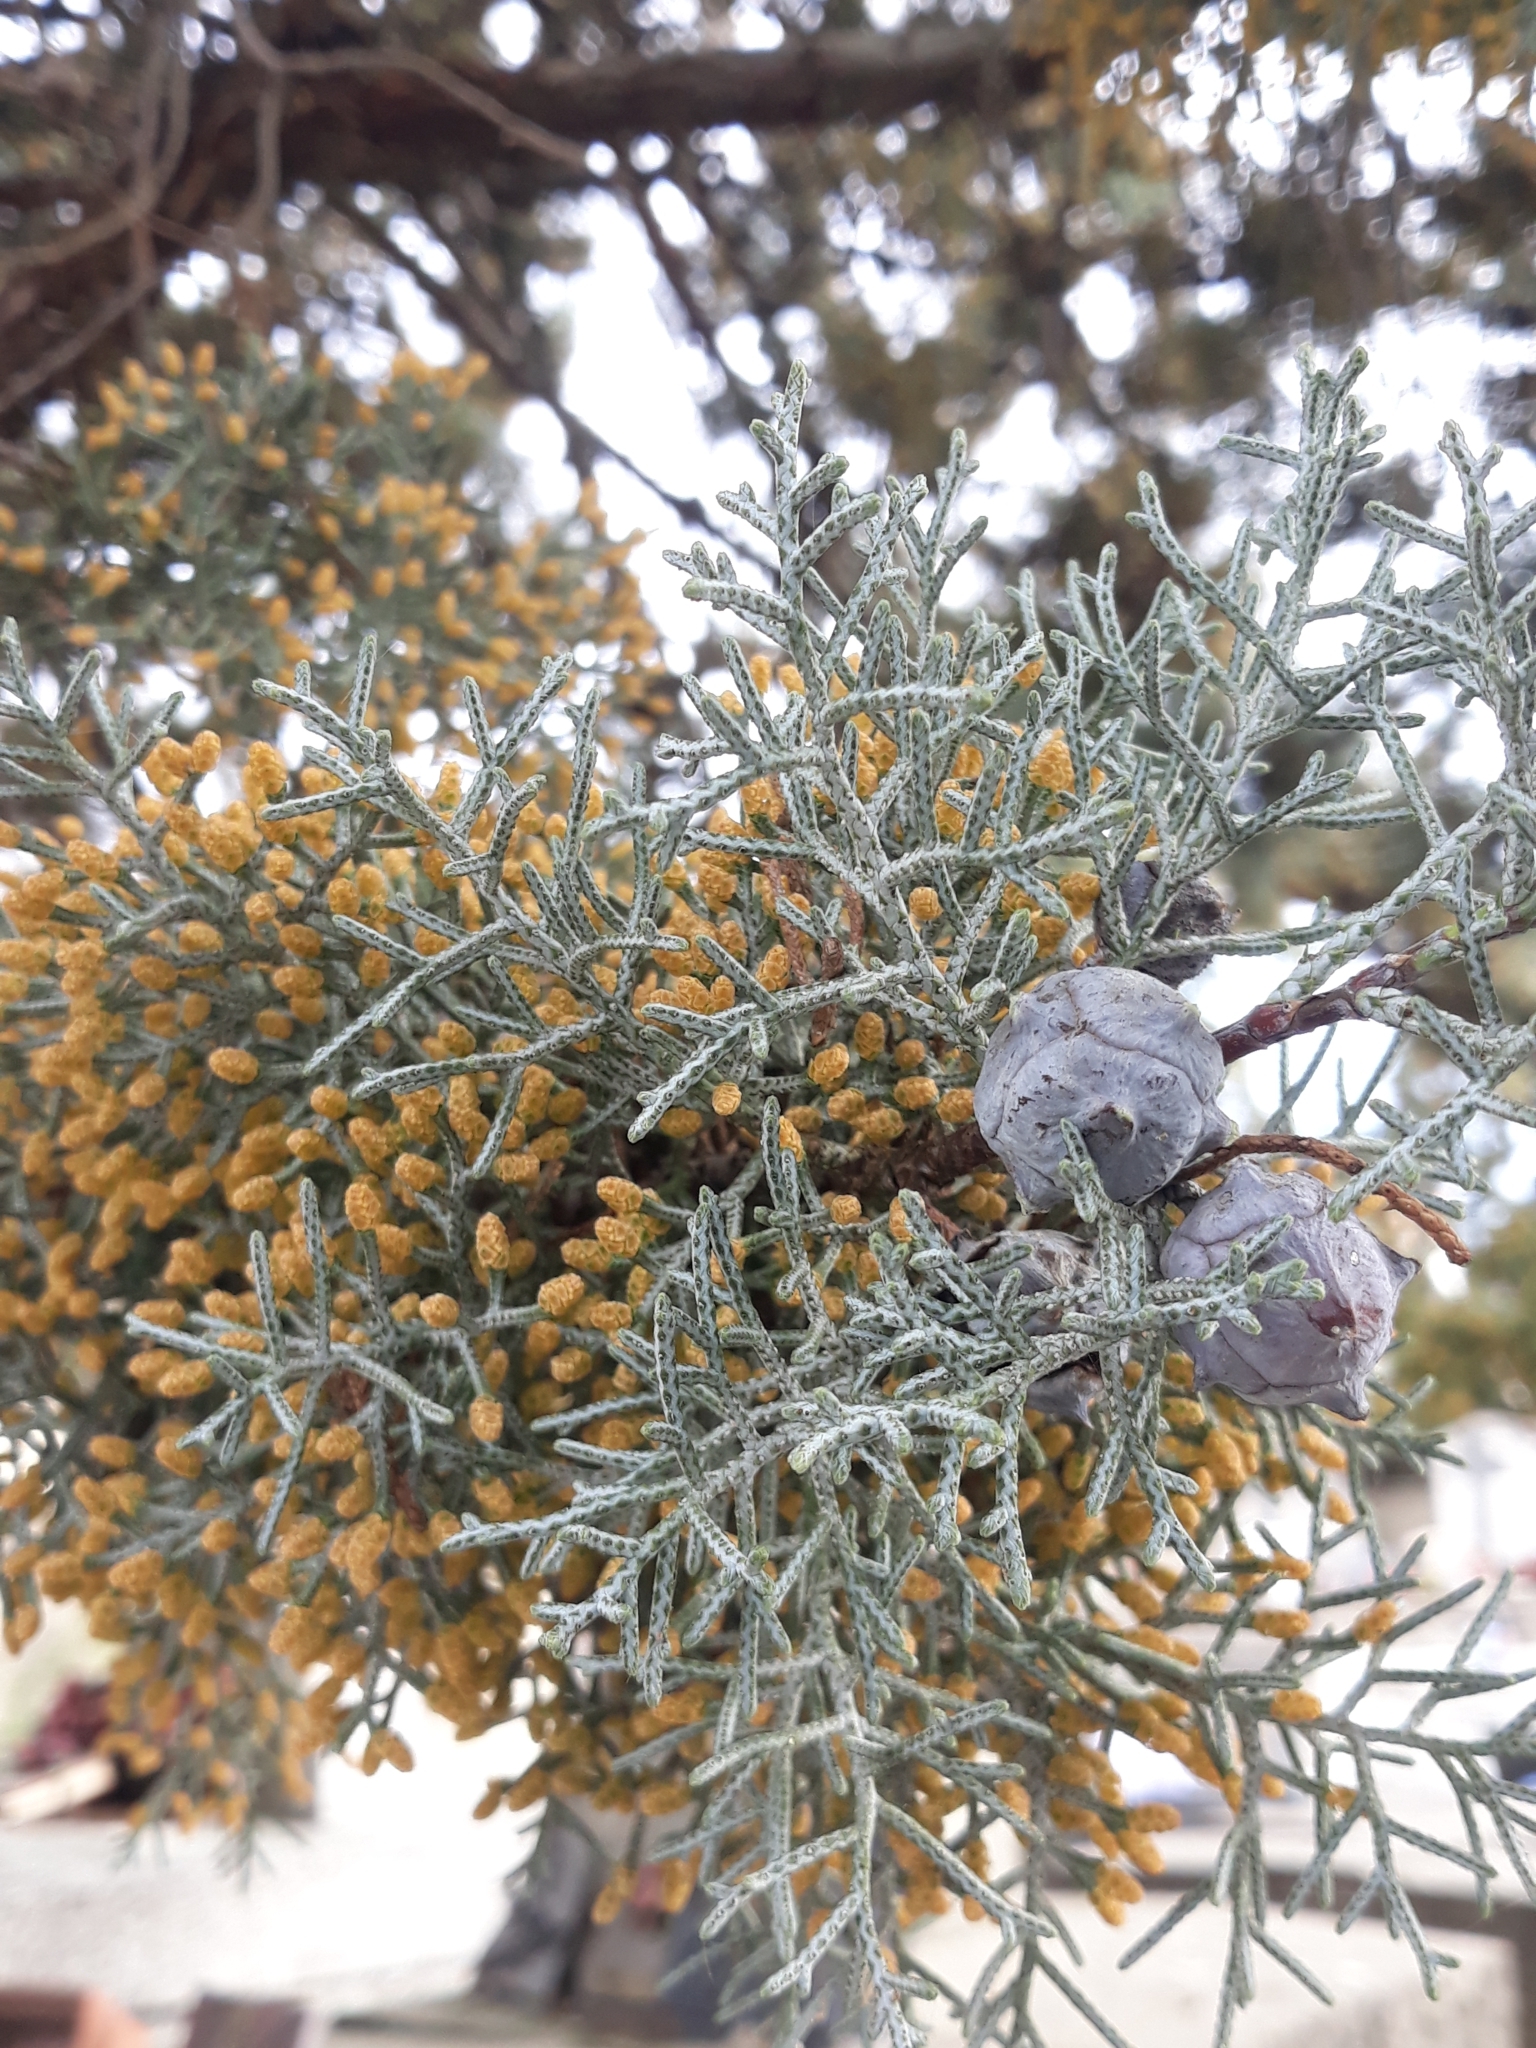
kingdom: Plantae
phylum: Tracheophyta
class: Pinopsida
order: Pinales
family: Cupressaceae
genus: Cupressus
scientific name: Cupressus arizonica
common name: Arizona cypress
